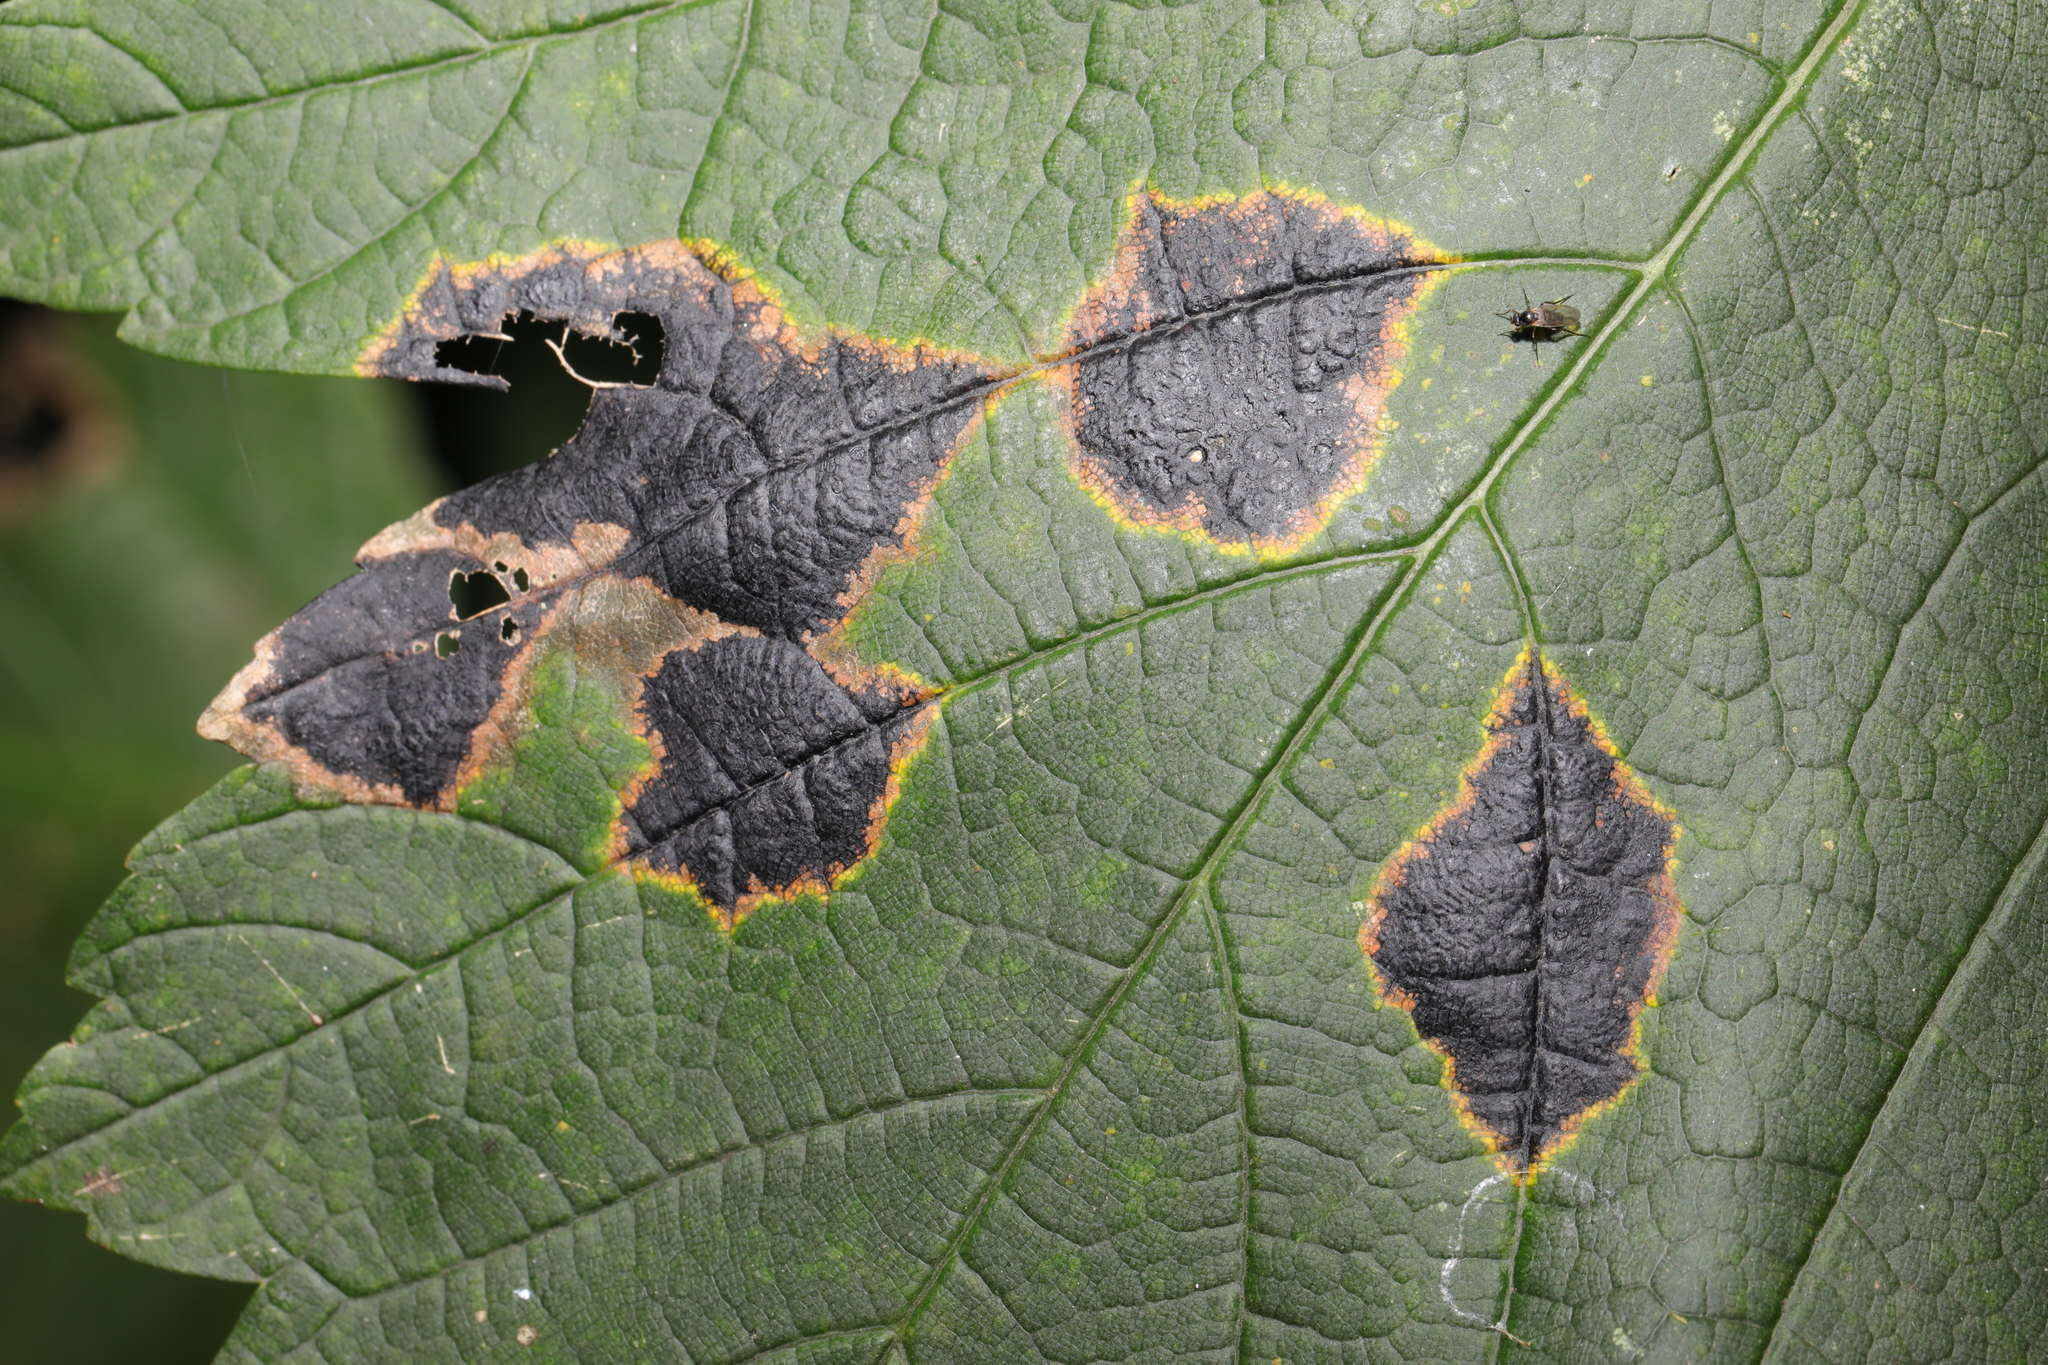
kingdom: Fungi
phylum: Ascomycota
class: Leotiomycetes
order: Rhytismatales
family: Rhytismataceae
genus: Rhytisma
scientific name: Rhytisma acerinum
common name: European tar spot
